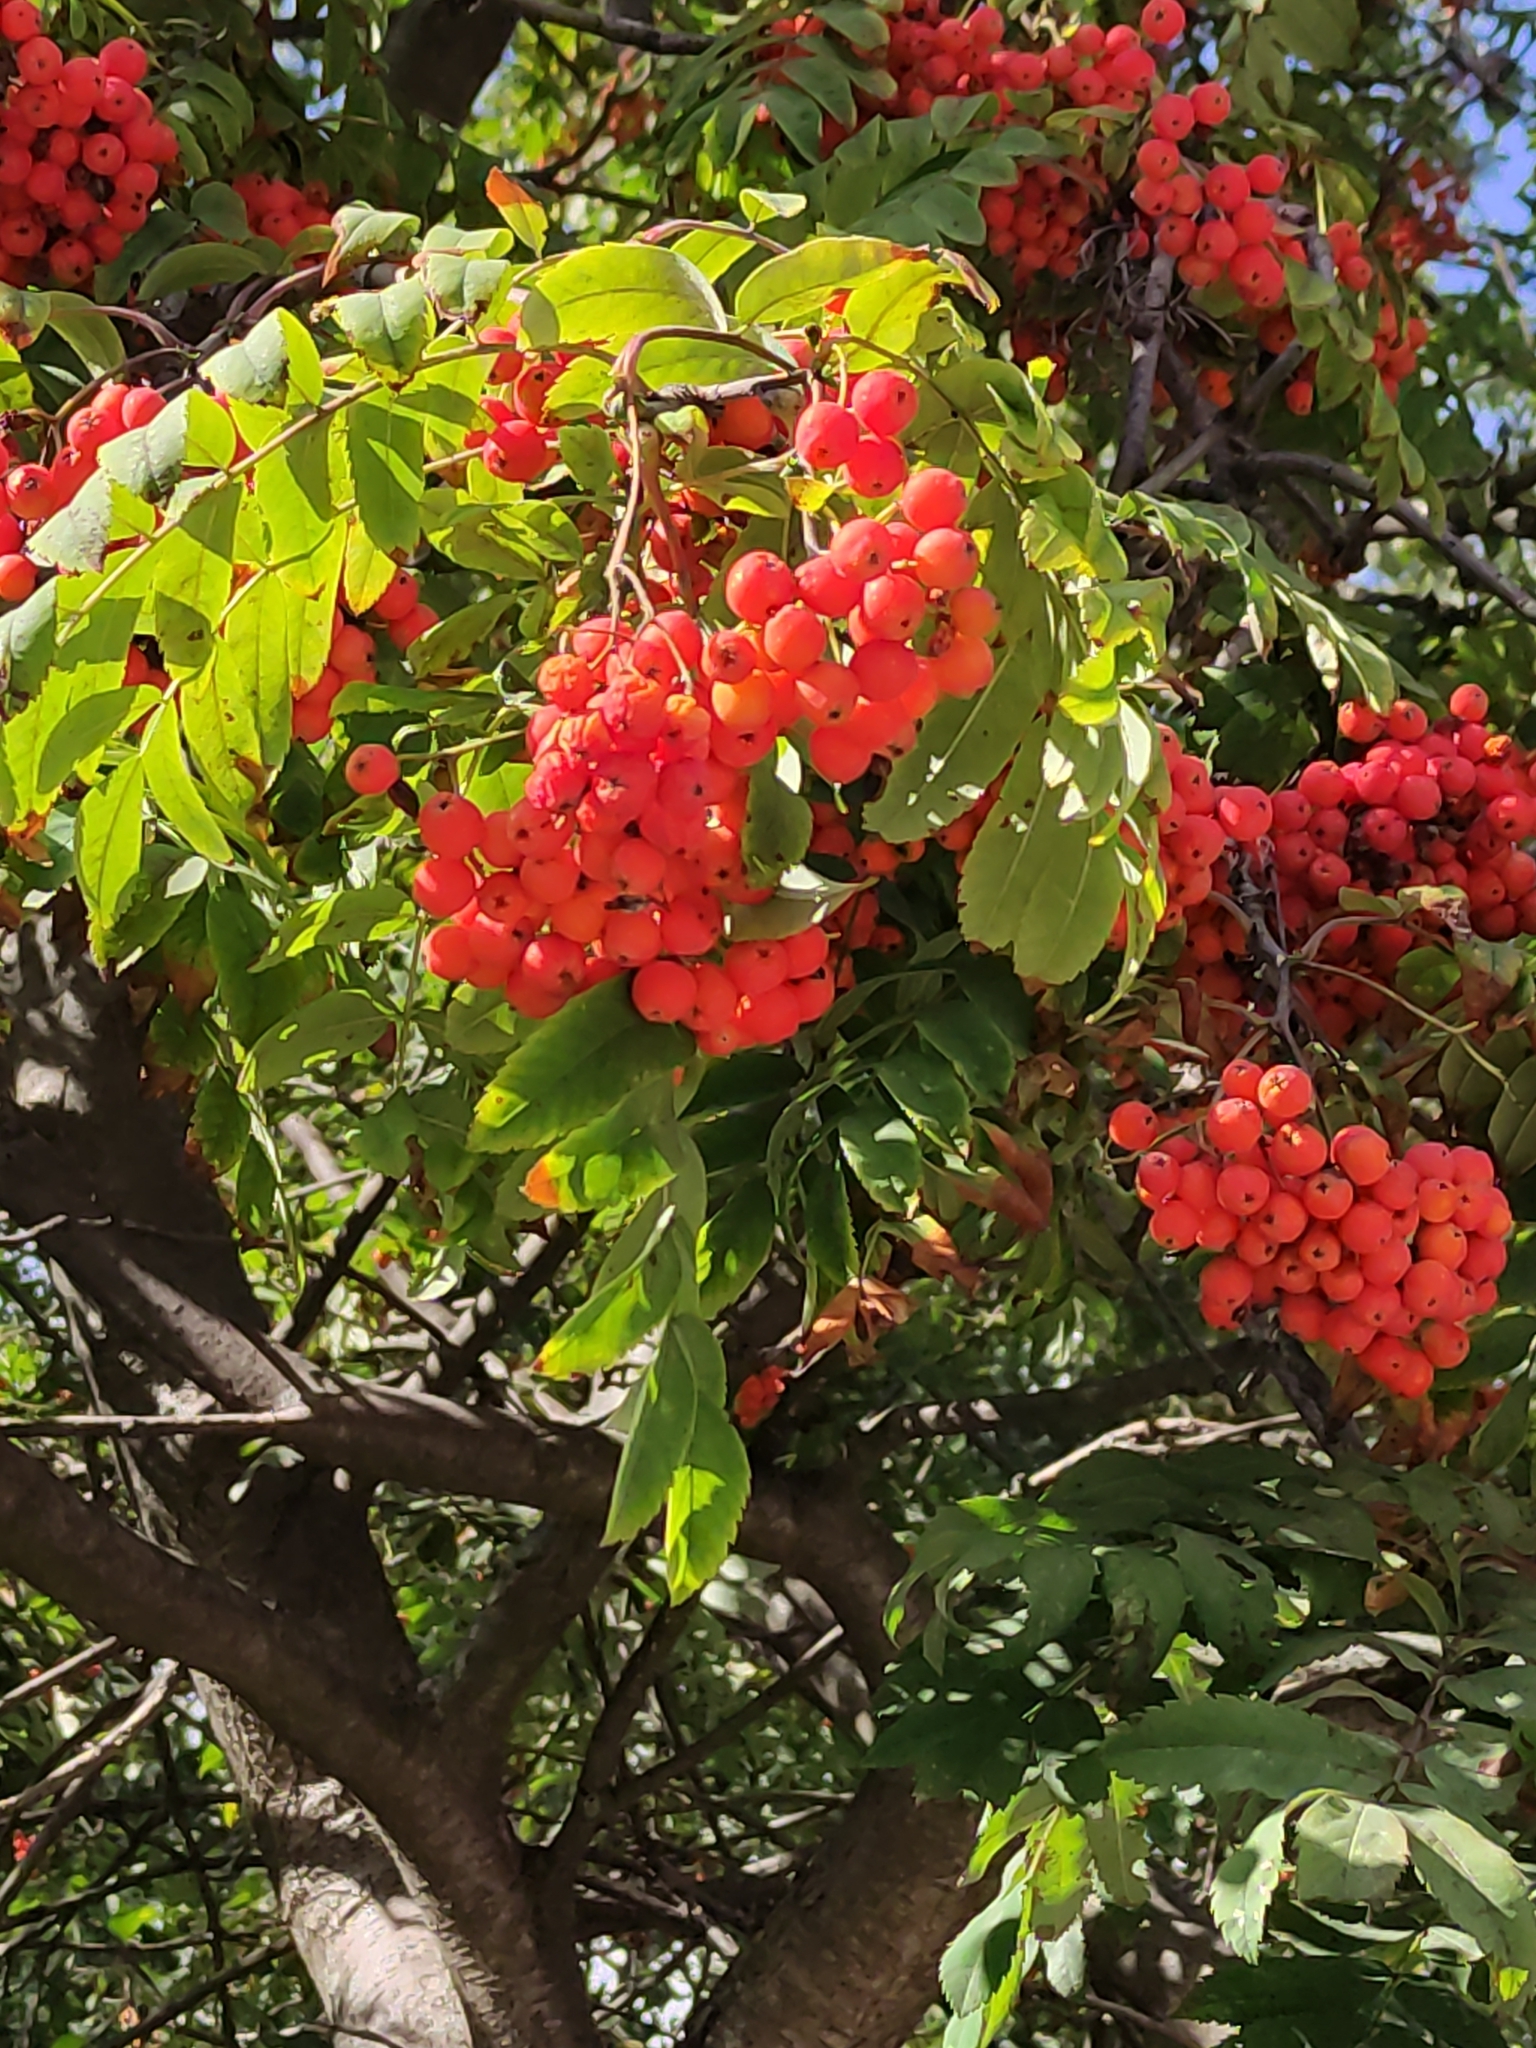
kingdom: Plantae
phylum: Tracheophyta
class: Magnoliopsida
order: Rosales
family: Rosaceae
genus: Sorbus
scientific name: Sorbus aucuparia
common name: Rowan
